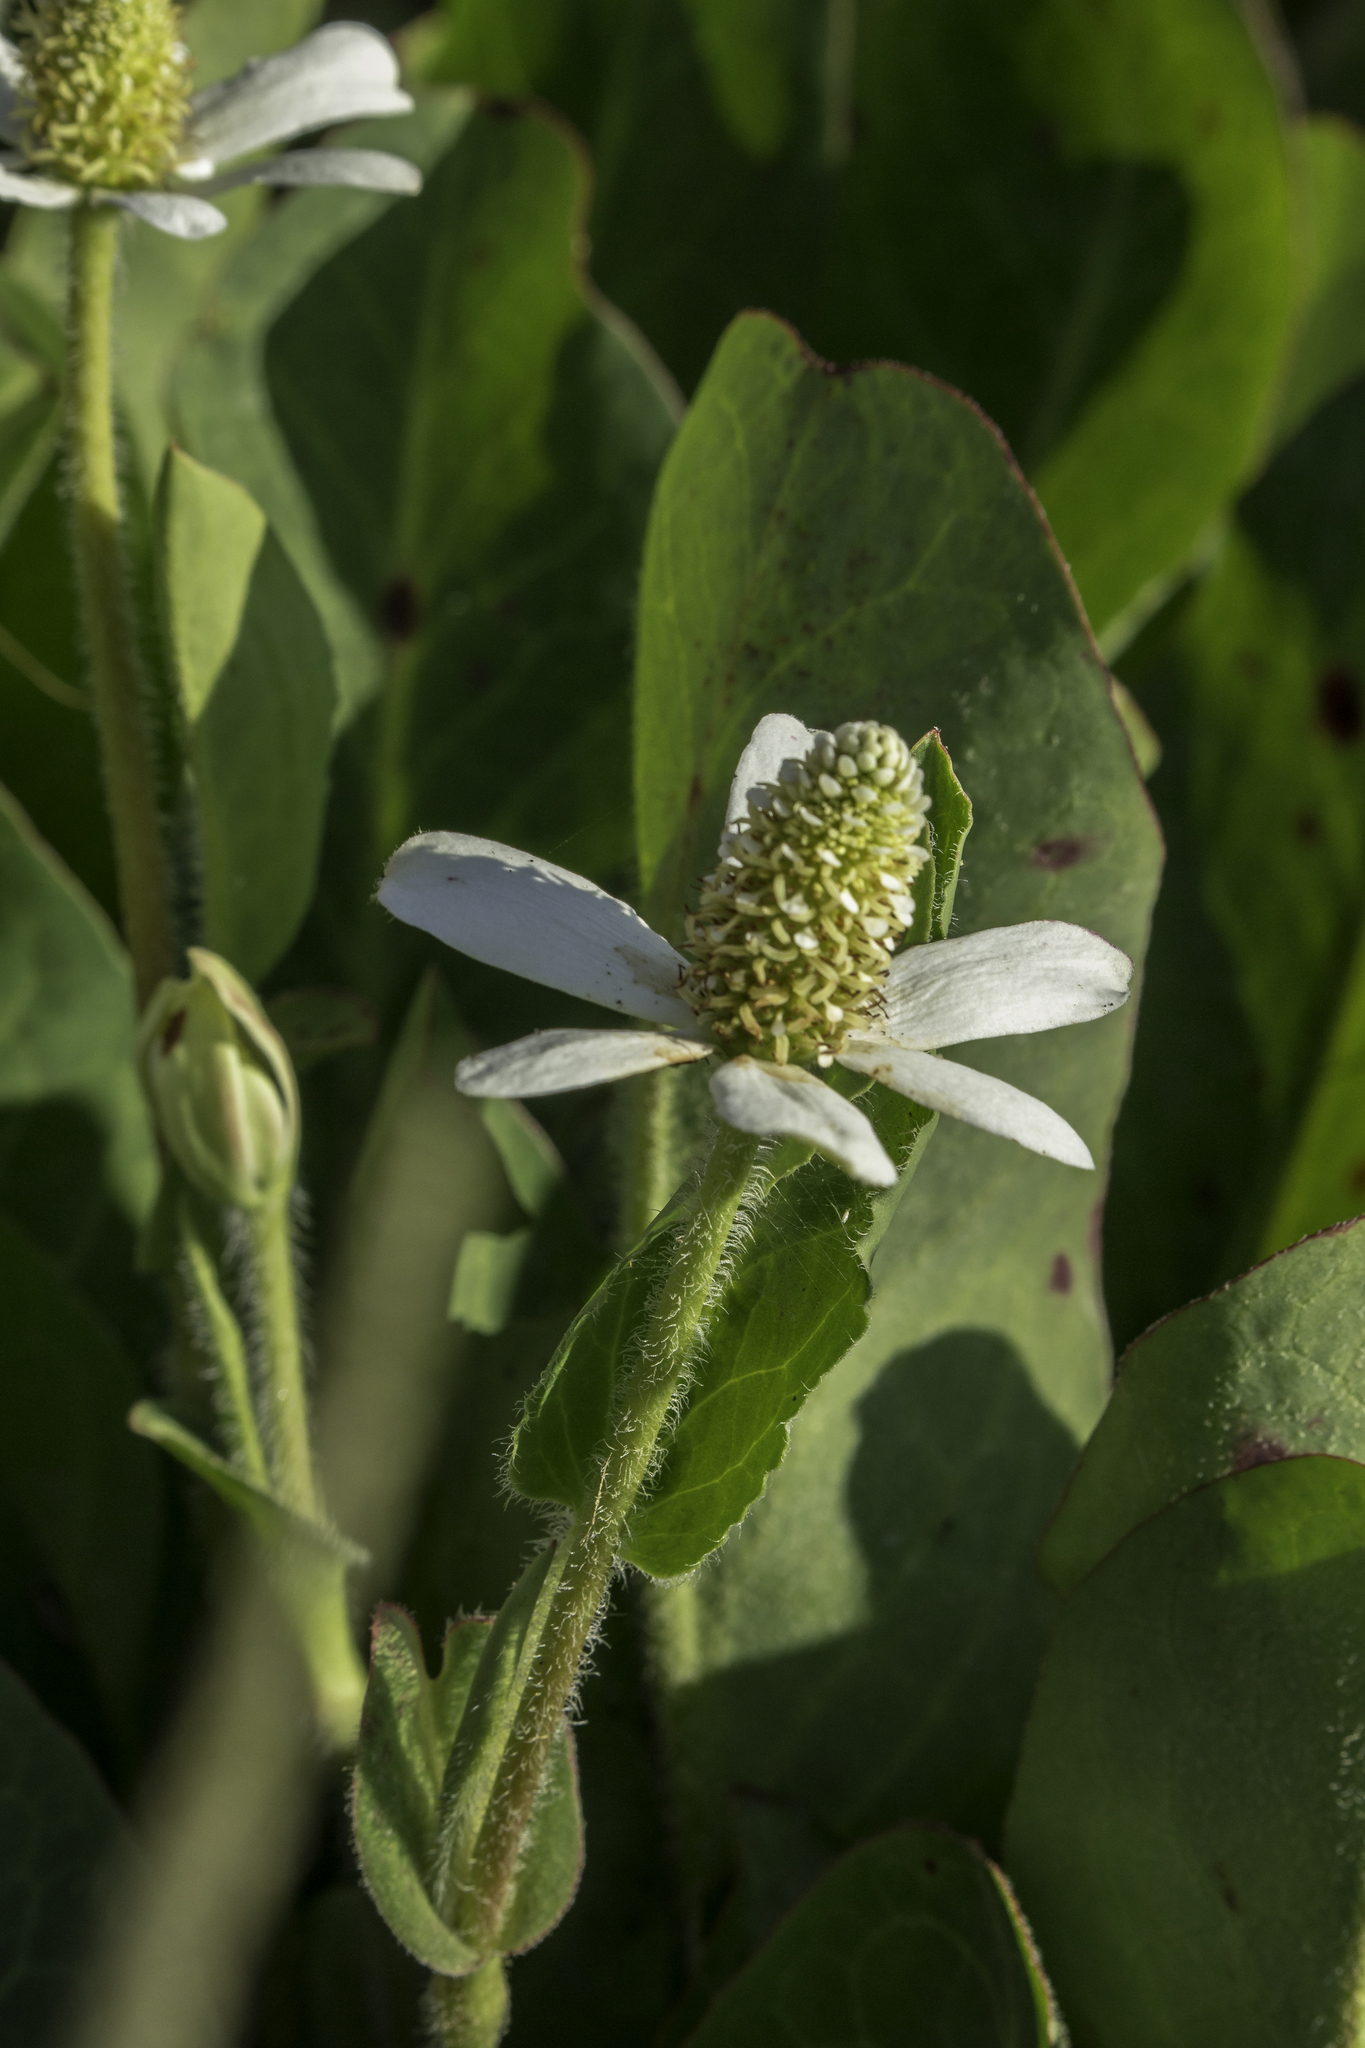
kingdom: Plantae
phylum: Tracheophyta
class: Magnoliopsida
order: Piperales
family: Saururaceae
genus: Anemopsis
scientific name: Anemopsis californica
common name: Apache-beads
